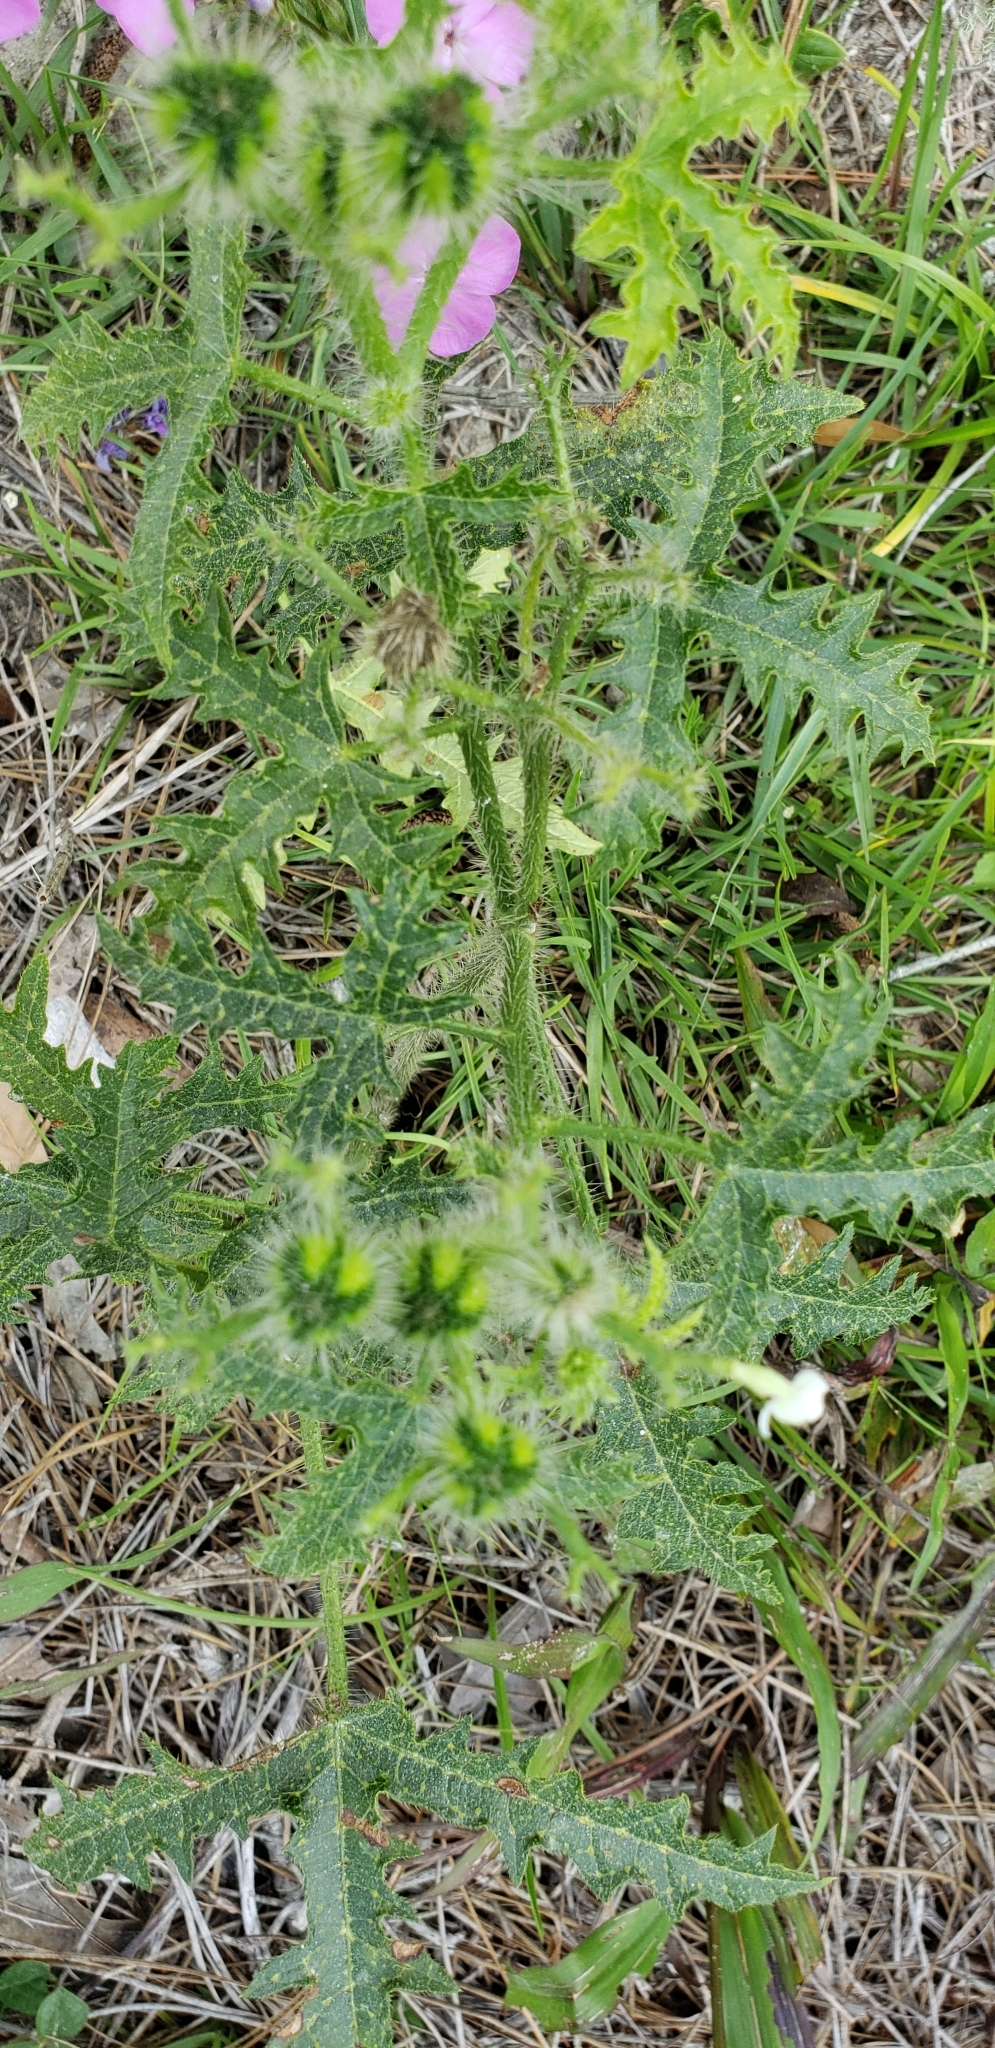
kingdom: Plantae
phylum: Tracheophyta
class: Magnoliopsida
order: Malpighiales
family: Euphorbiaceae
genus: Cnidoscolus
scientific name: Cnidoscolus stimulosus
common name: Bull-nettle
